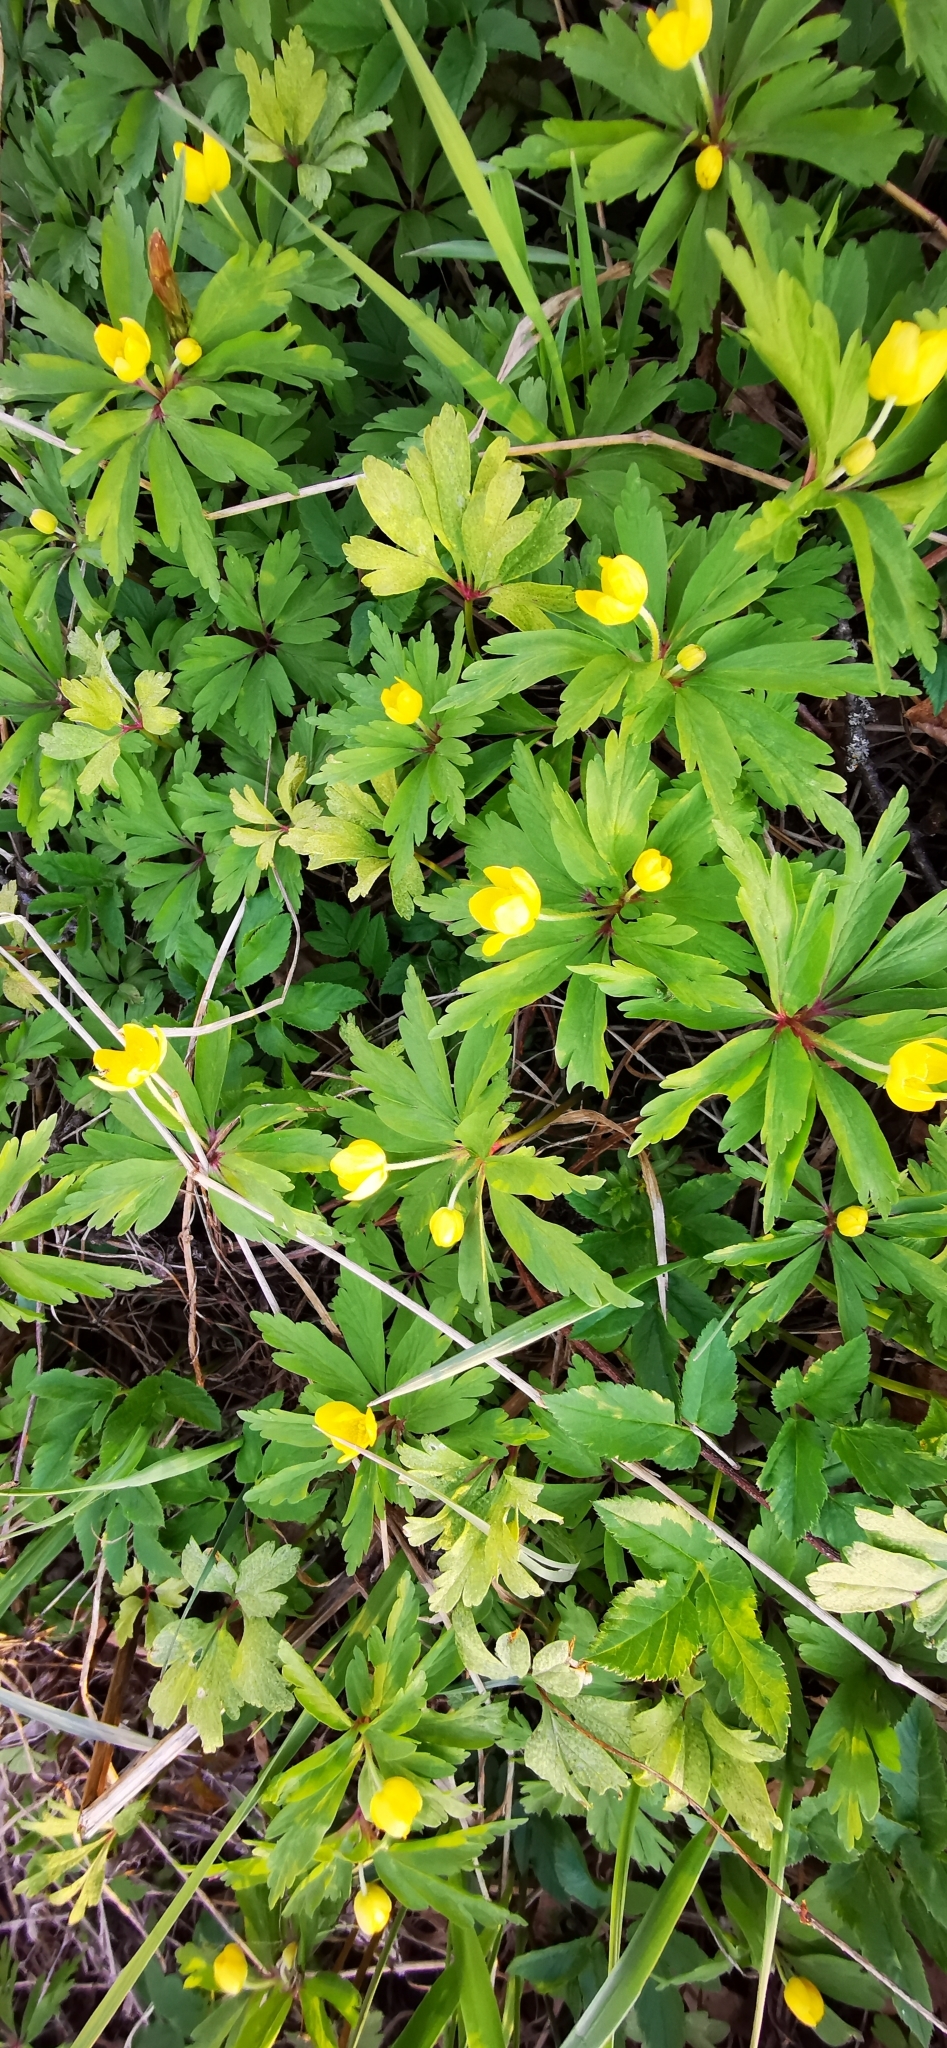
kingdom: Plantae
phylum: Tracheophyta
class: Magnoliopsida
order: Ranunculales
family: Ranunculaceae
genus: Anemone
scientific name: Anemone ranunculoides
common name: Yellow anemone
